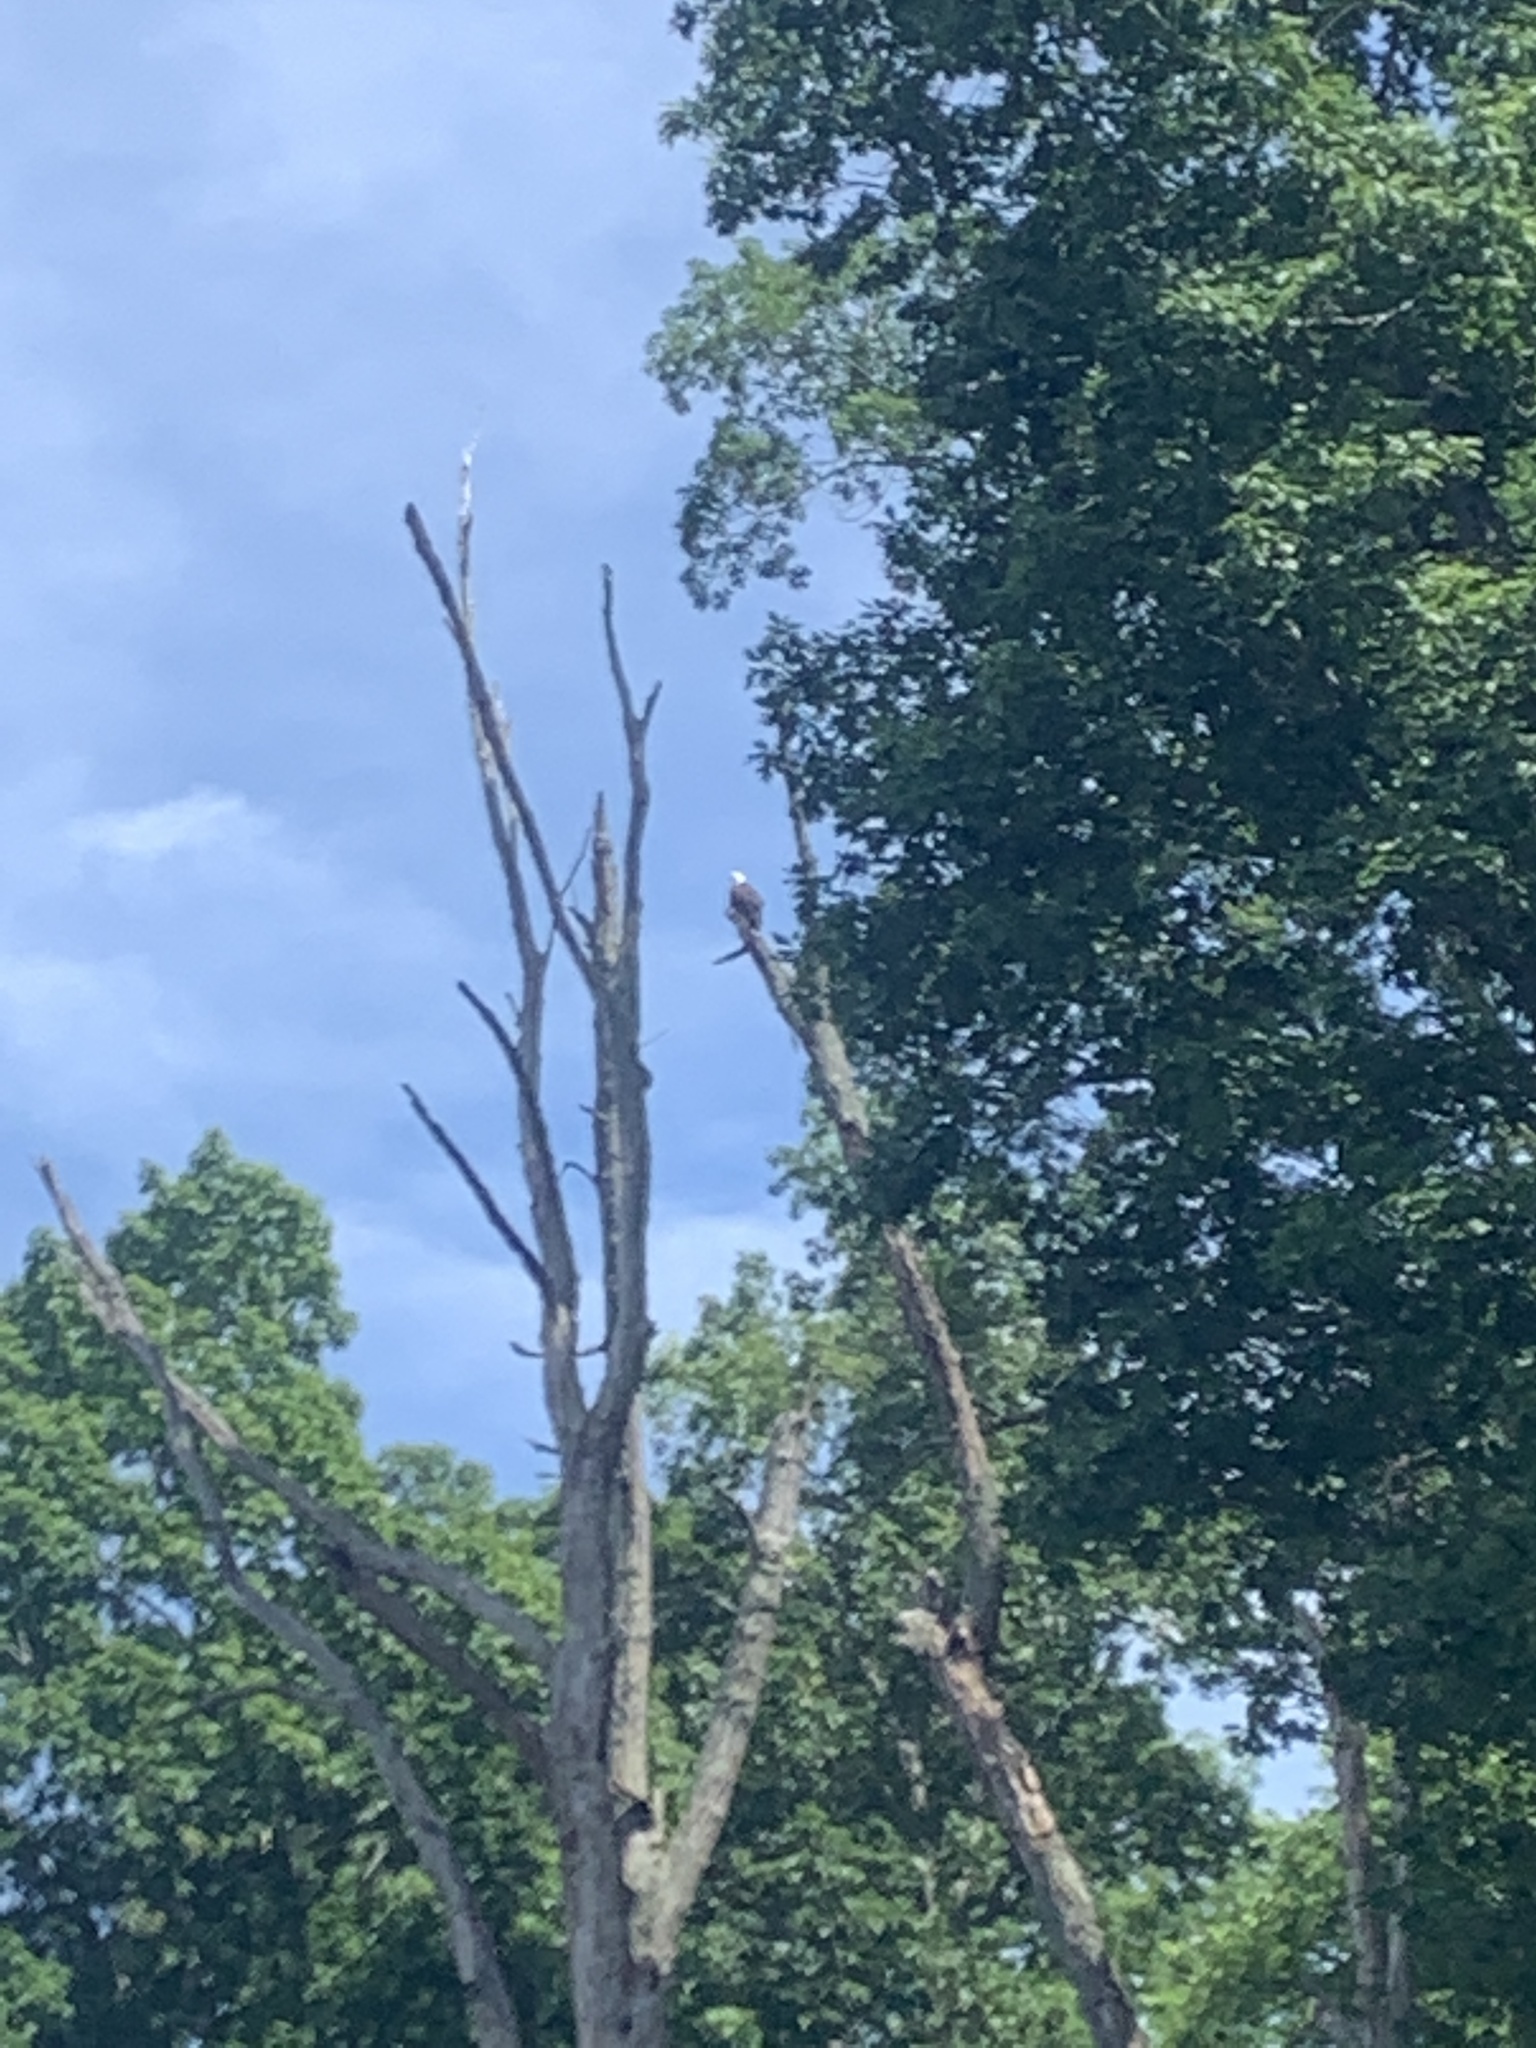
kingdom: Animalia
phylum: Chordata
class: Aves
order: Accipitriformes
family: Accipitridae
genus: Haliaeetus
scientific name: Haliaeetus leucocephalus
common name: Bald eagle
